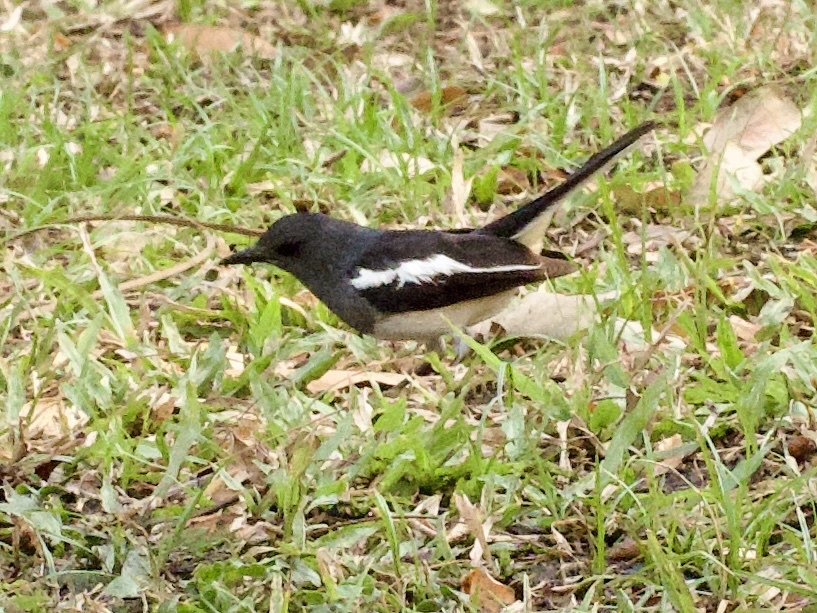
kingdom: Animalia
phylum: Chordata
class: Aves
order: Passeriformes
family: Muscicapidae
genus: Copsychus
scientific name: Copsychus saularis
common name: Oriental magpie-robin
